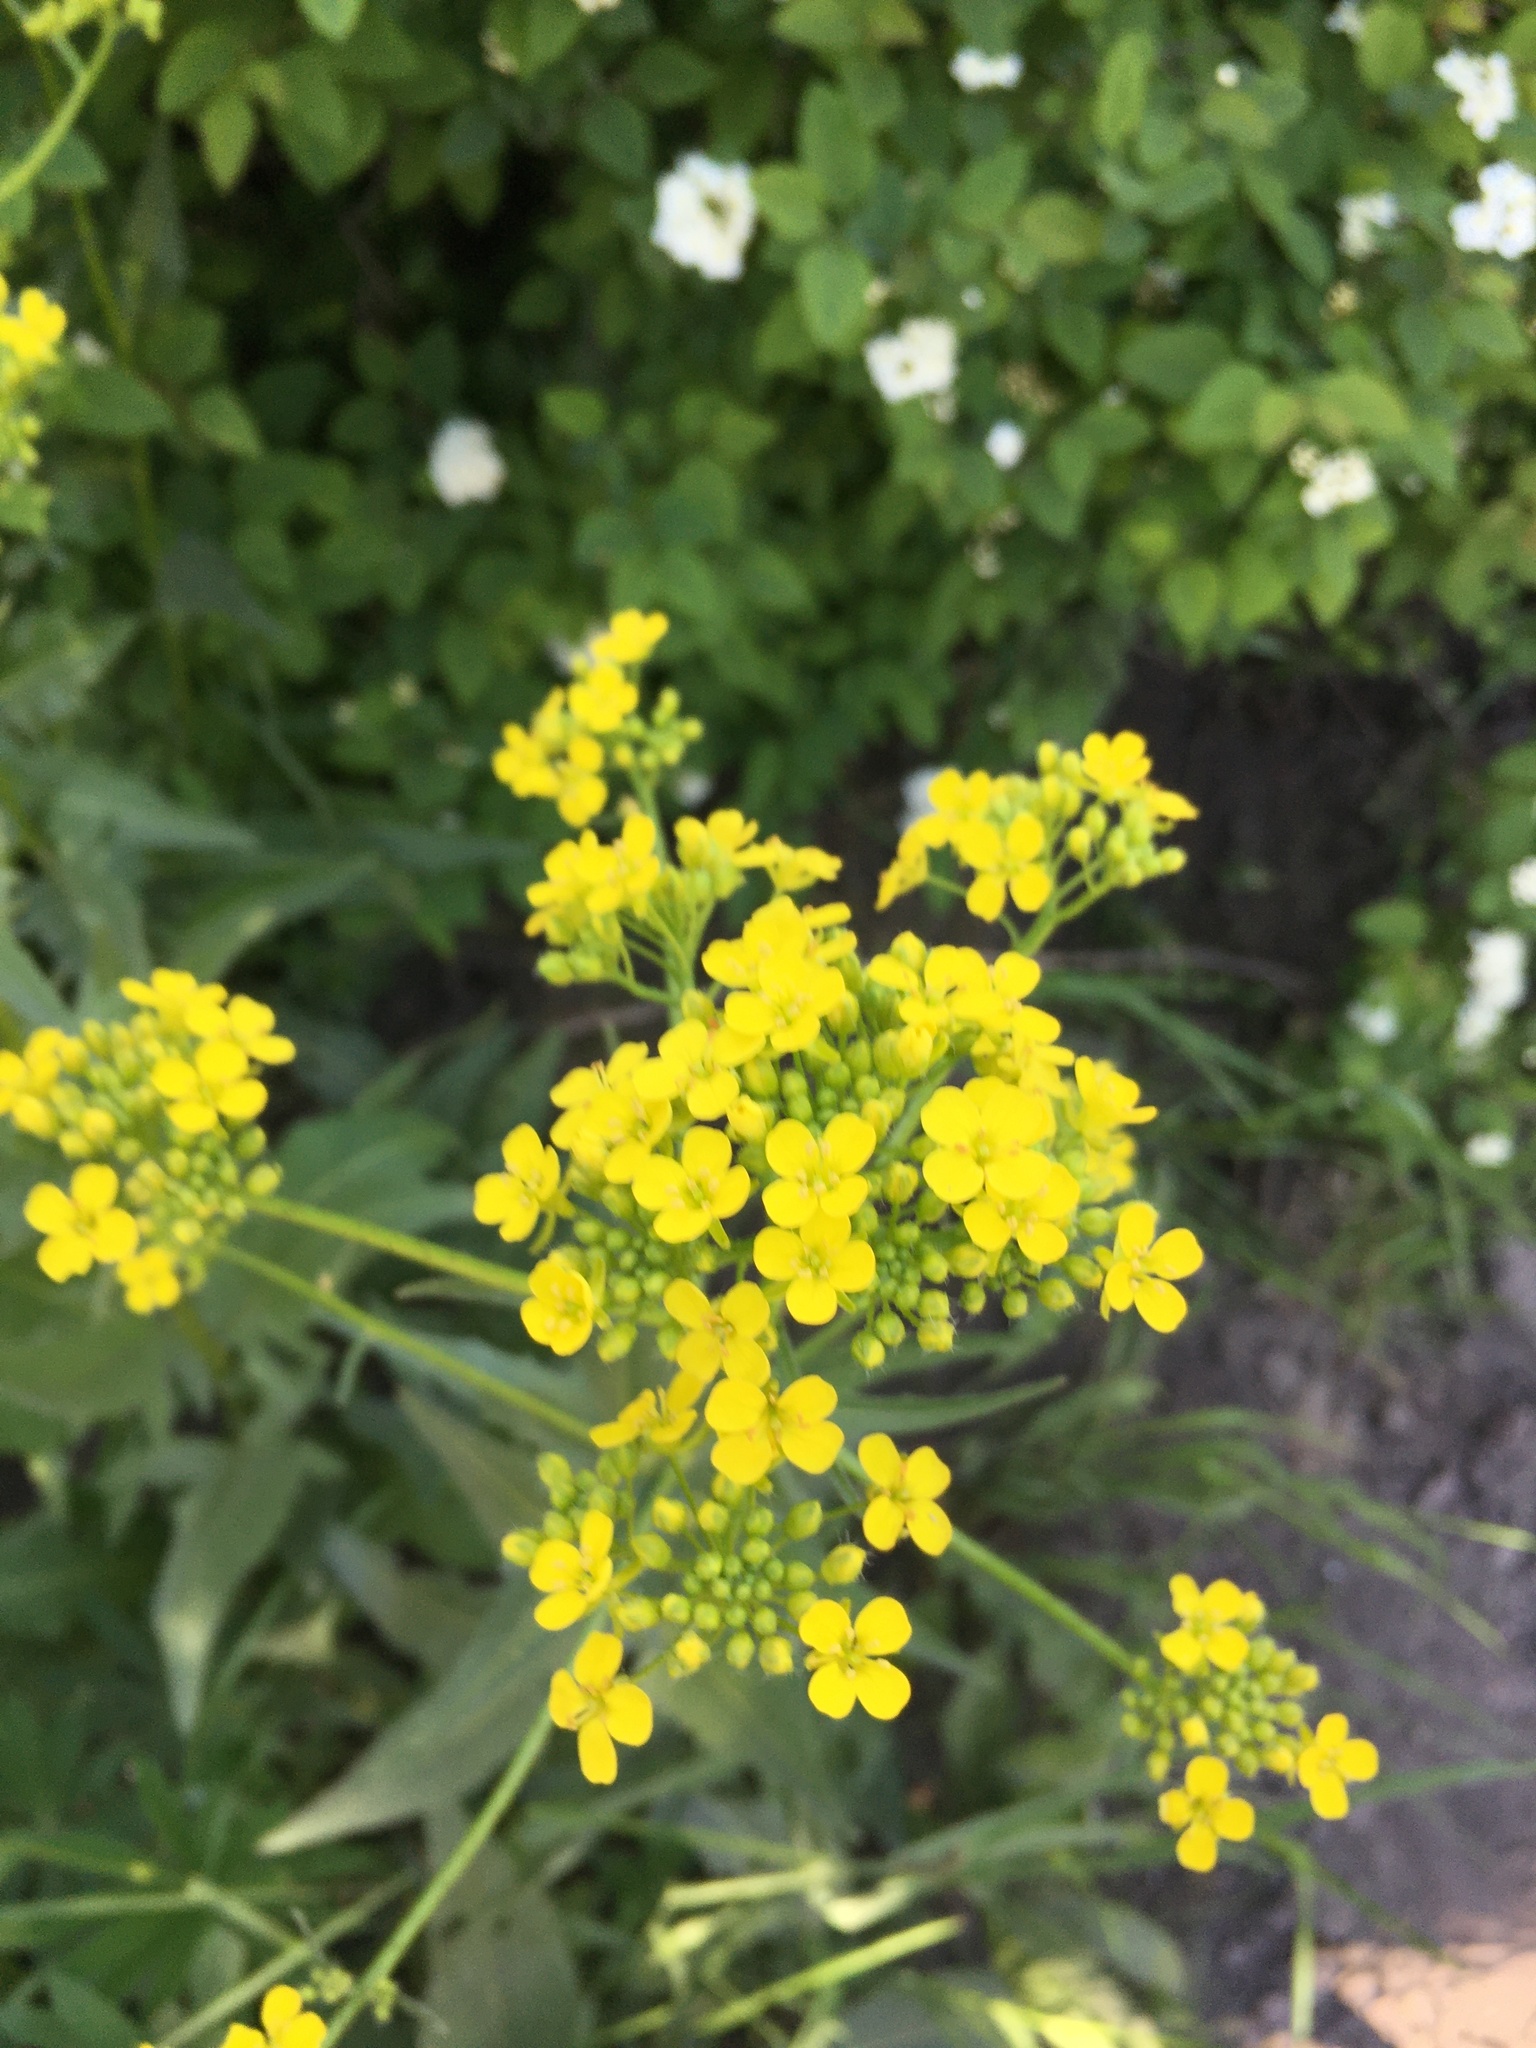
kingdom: Plantae
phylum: Tracheophyta
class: Magnoliopsida
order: Brassicales
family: Brassicaceae
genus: Bunias
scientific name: Bunias orientalis
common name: Warty-cabbage
